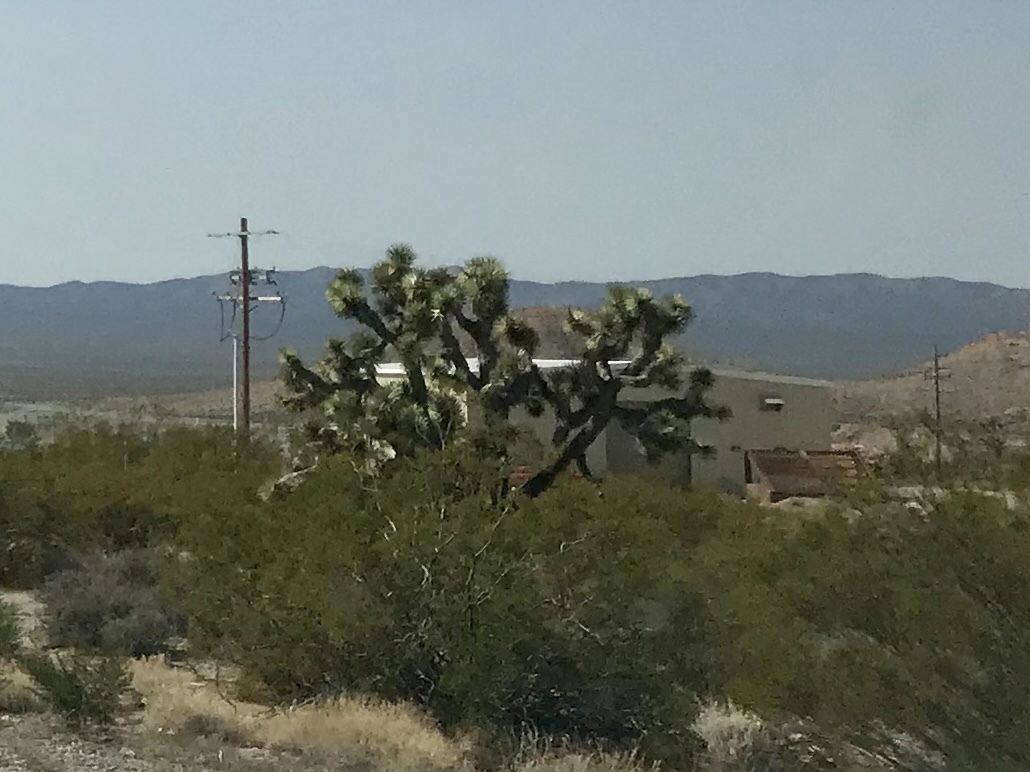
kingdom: Plantae
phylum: Tracheophyta
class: Liliopsida
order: Asparagales
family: Asparagaceae
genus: Yucca
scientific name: Yucca brevifolia
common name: Joshua tree
